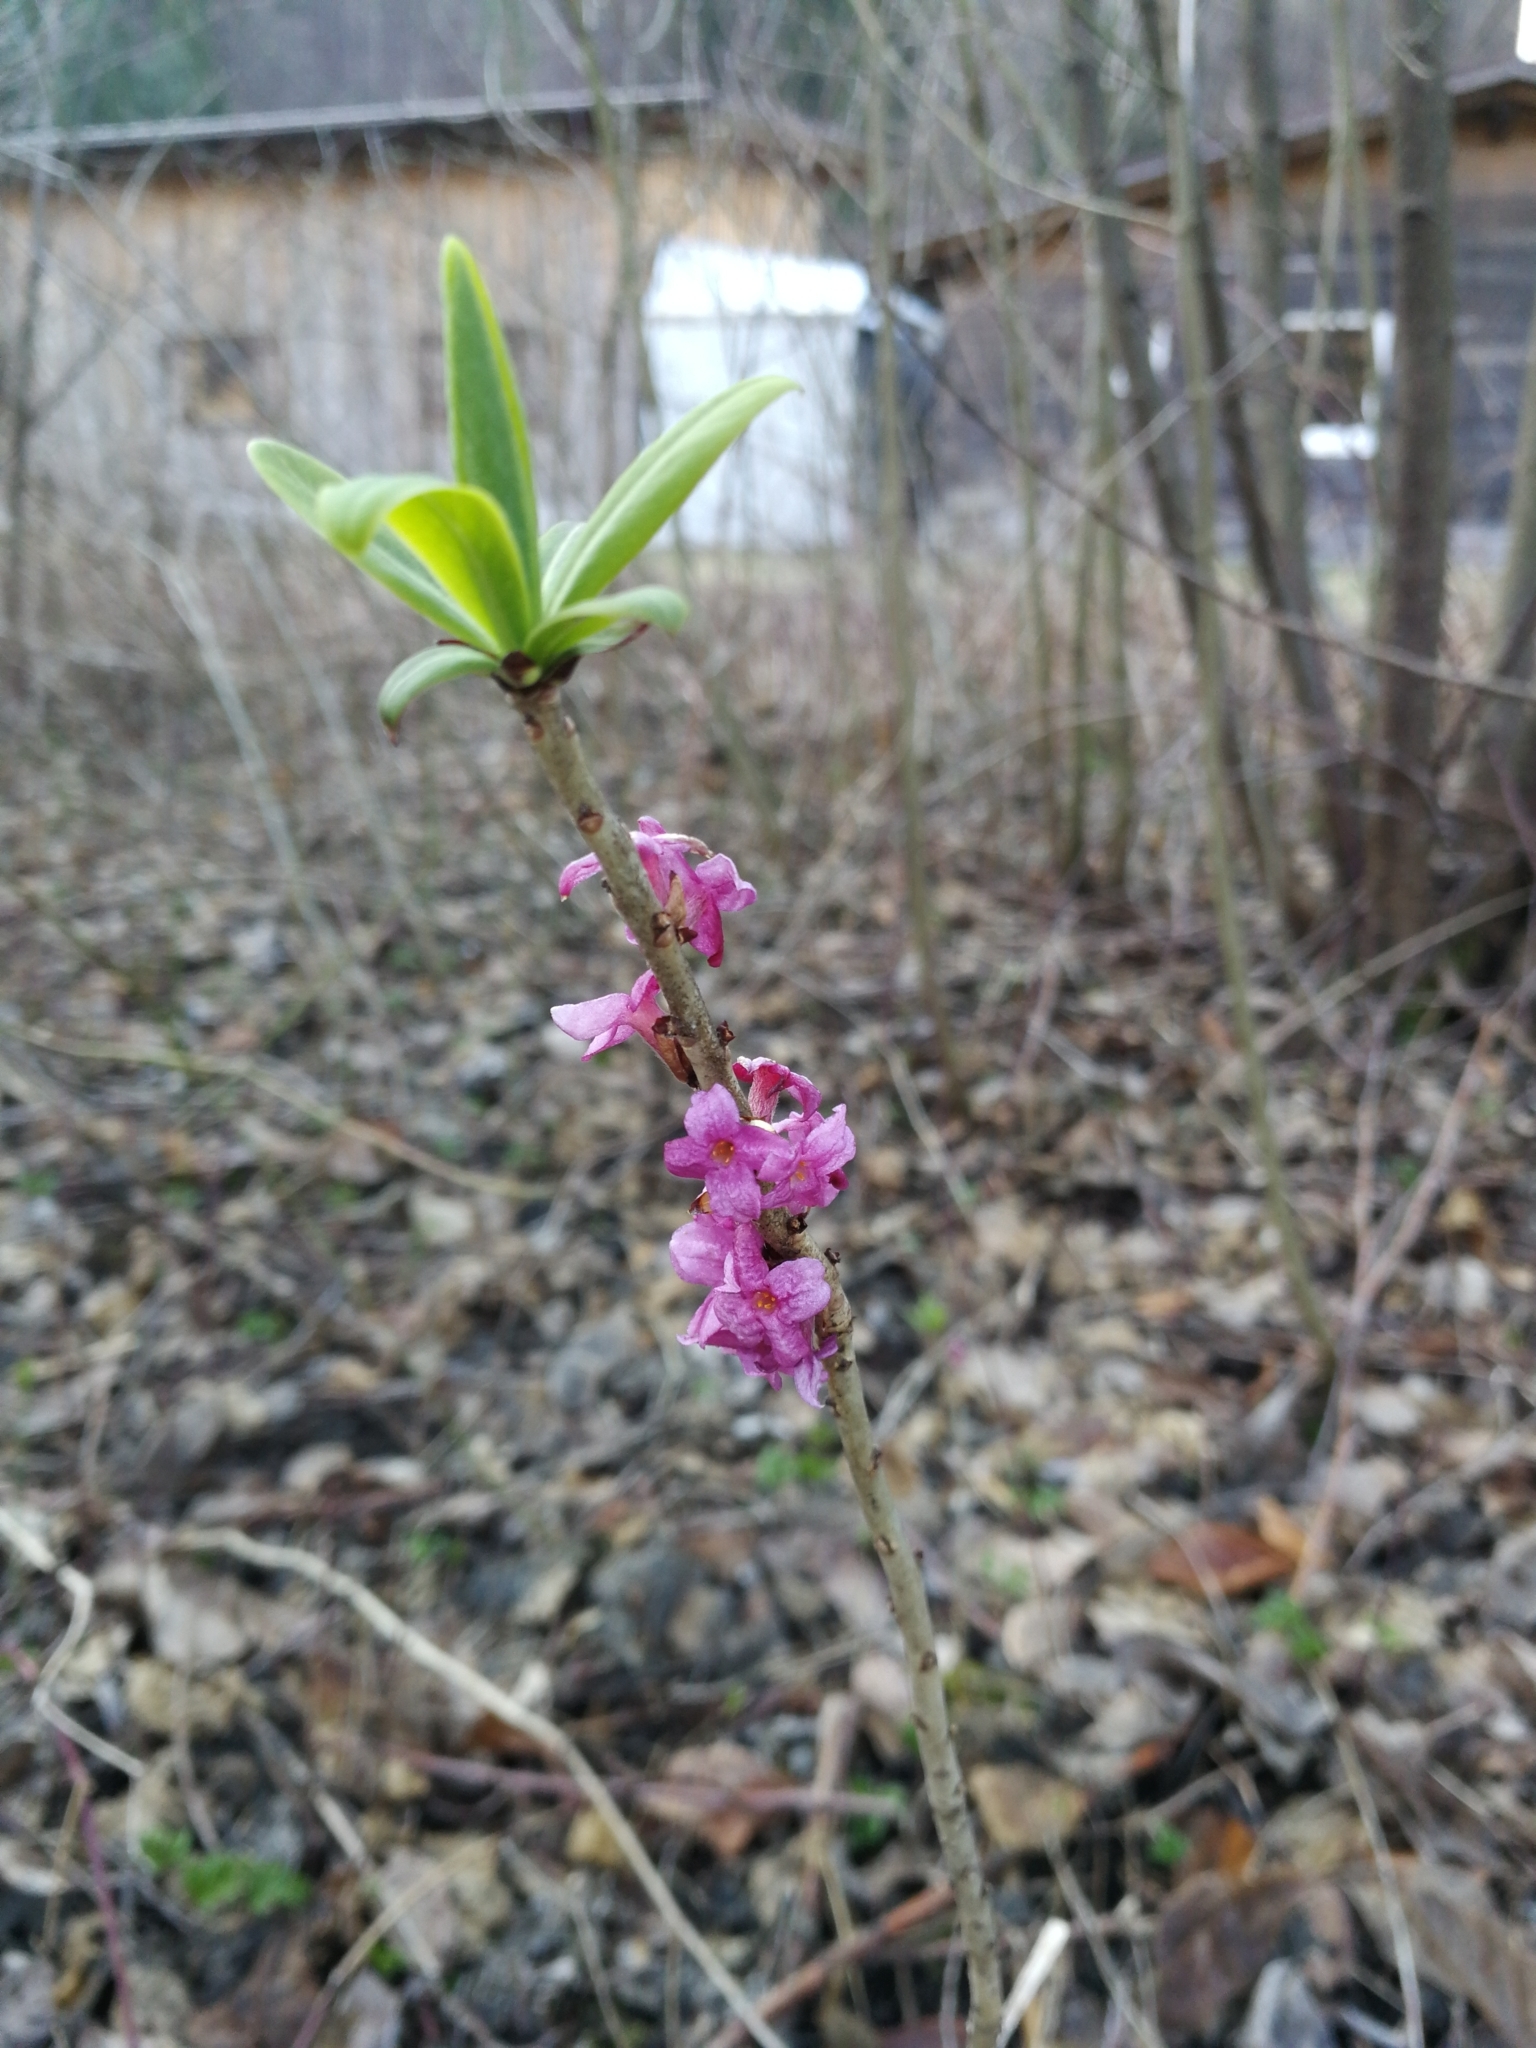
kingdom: Plantae
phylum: Tracheophyta
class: Magnoliopsida
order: Malvales
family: Thymelaeaceae
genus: Daphne
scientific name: Daphne mezereum
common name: Mezereon
